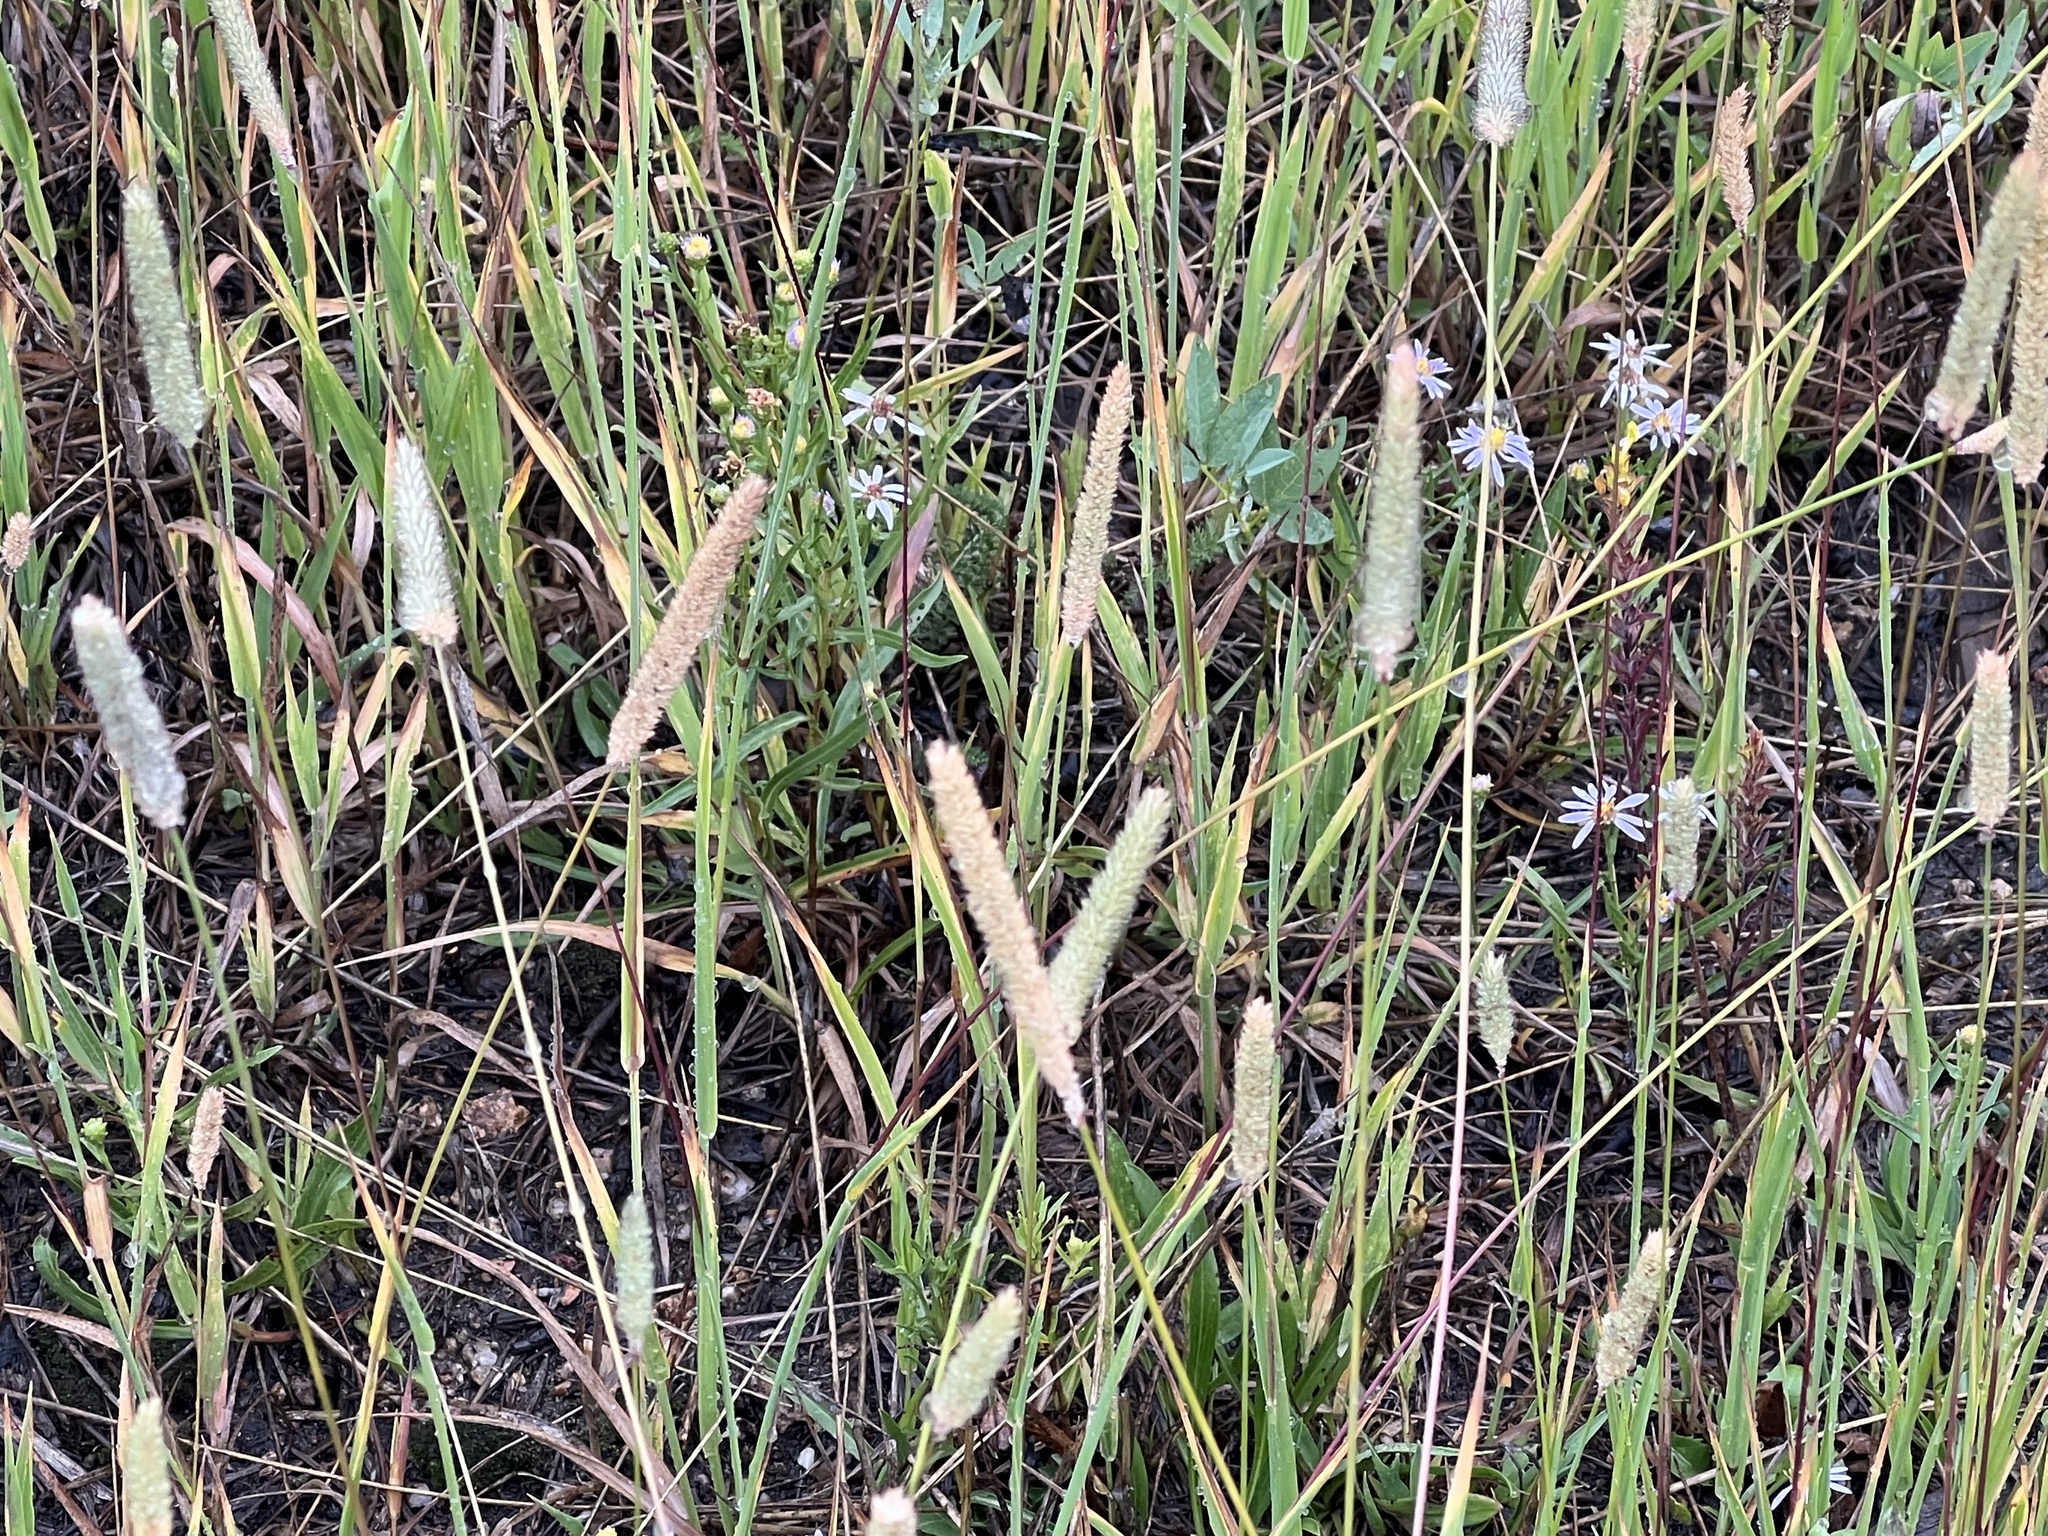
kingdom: Plantae
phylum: Tracheophyta
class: Liliopsida
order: Poales
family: Poaceae
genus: Phleum
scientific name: Phleum pratense
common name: Timothy grass
